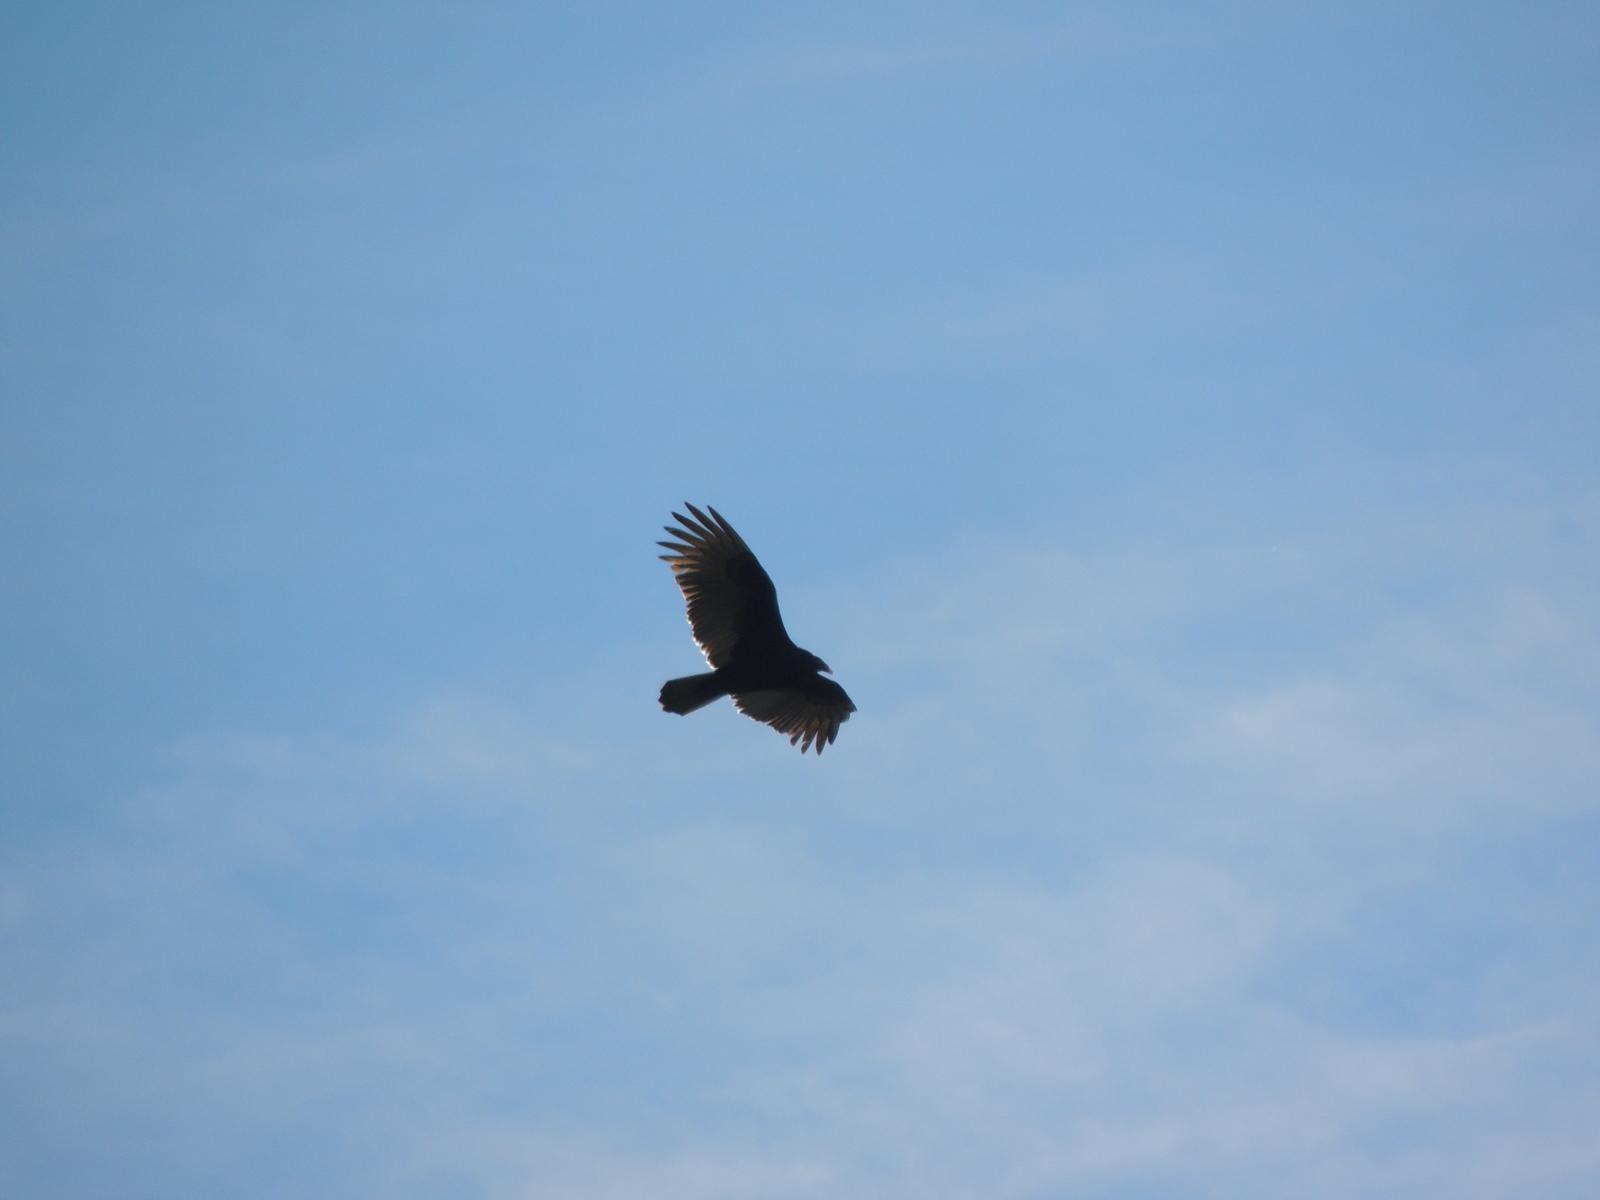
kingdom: Animalia
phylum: Chordata
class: Aves
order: Accipitriformes
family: Cathartidae
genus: Cathartes
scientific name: Cathartes aura
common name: Turkey vulture
